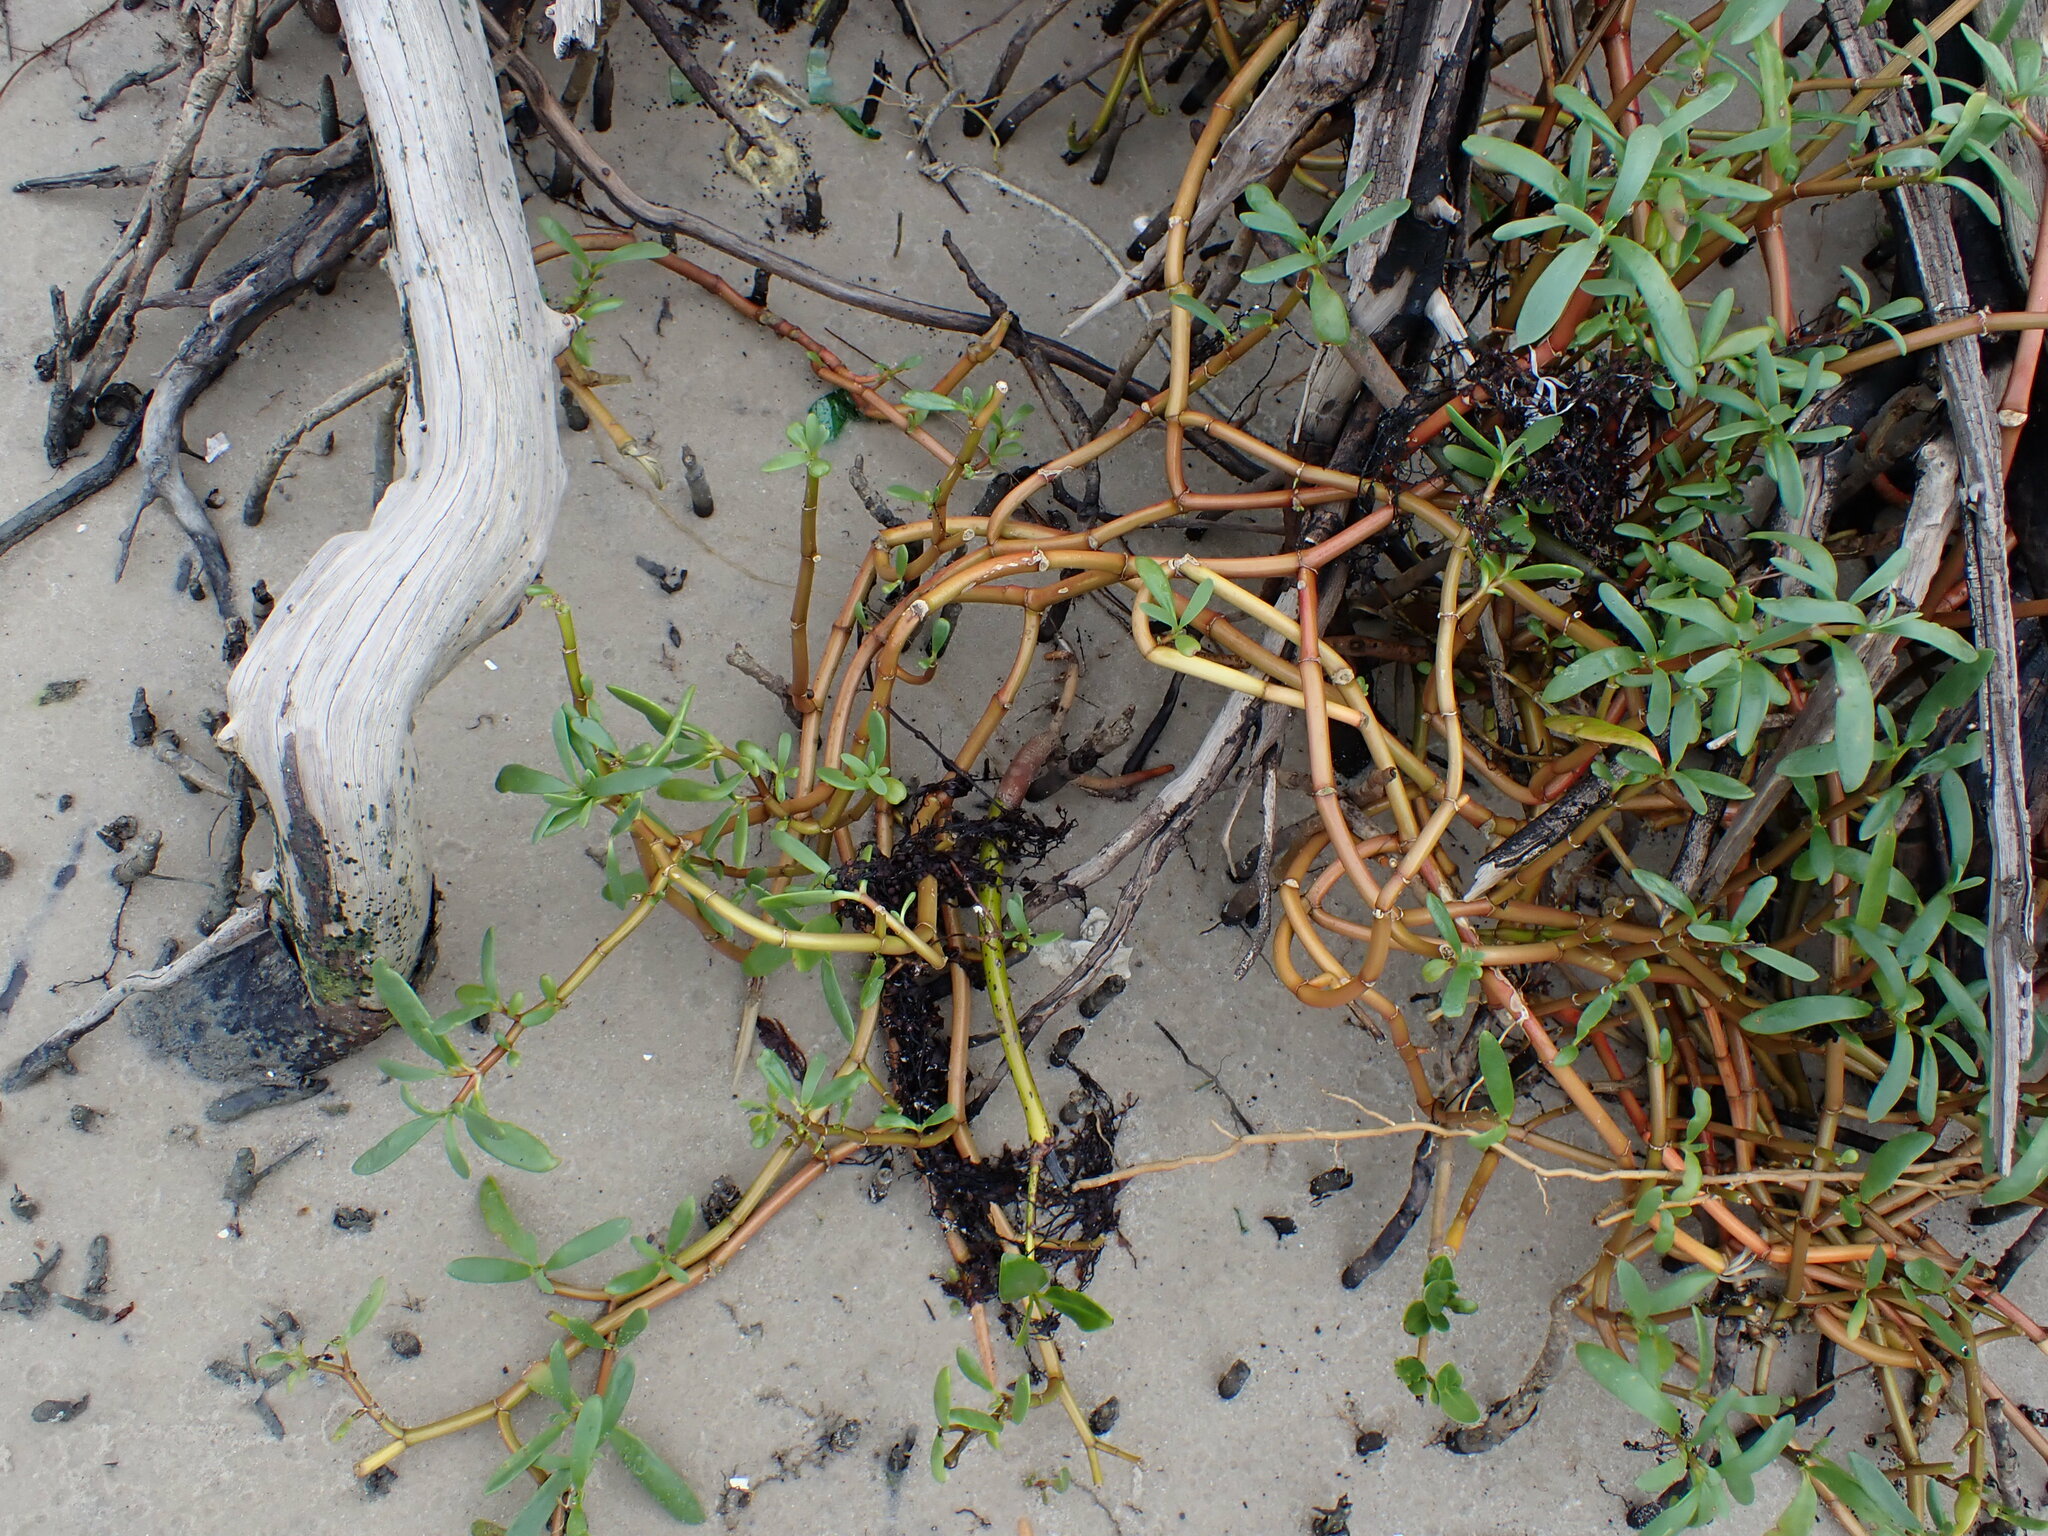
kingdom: Plantae
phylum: Tracheophyta
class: Magnoliopsida
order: Caryophyllales
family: Aizoaceae
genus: Sesuvium
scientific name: Sesuvium portulacastrum
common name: Sea-purslane
